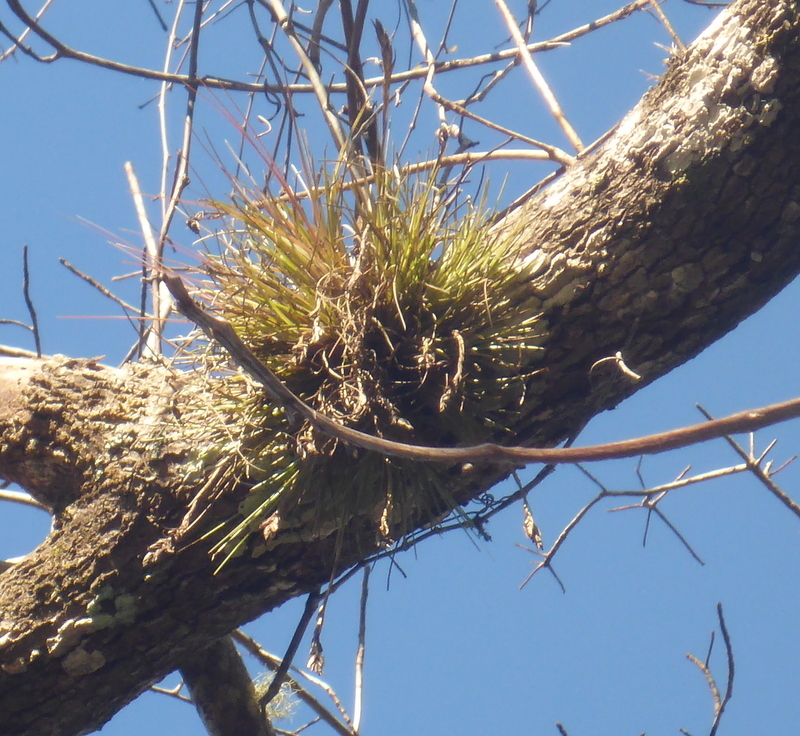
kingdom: Plantae
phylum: Tracheophyta
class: Liliopsida
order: Poales
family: Bromeliaceae
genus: Tillandsia
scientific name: Tillandsia bartramii
